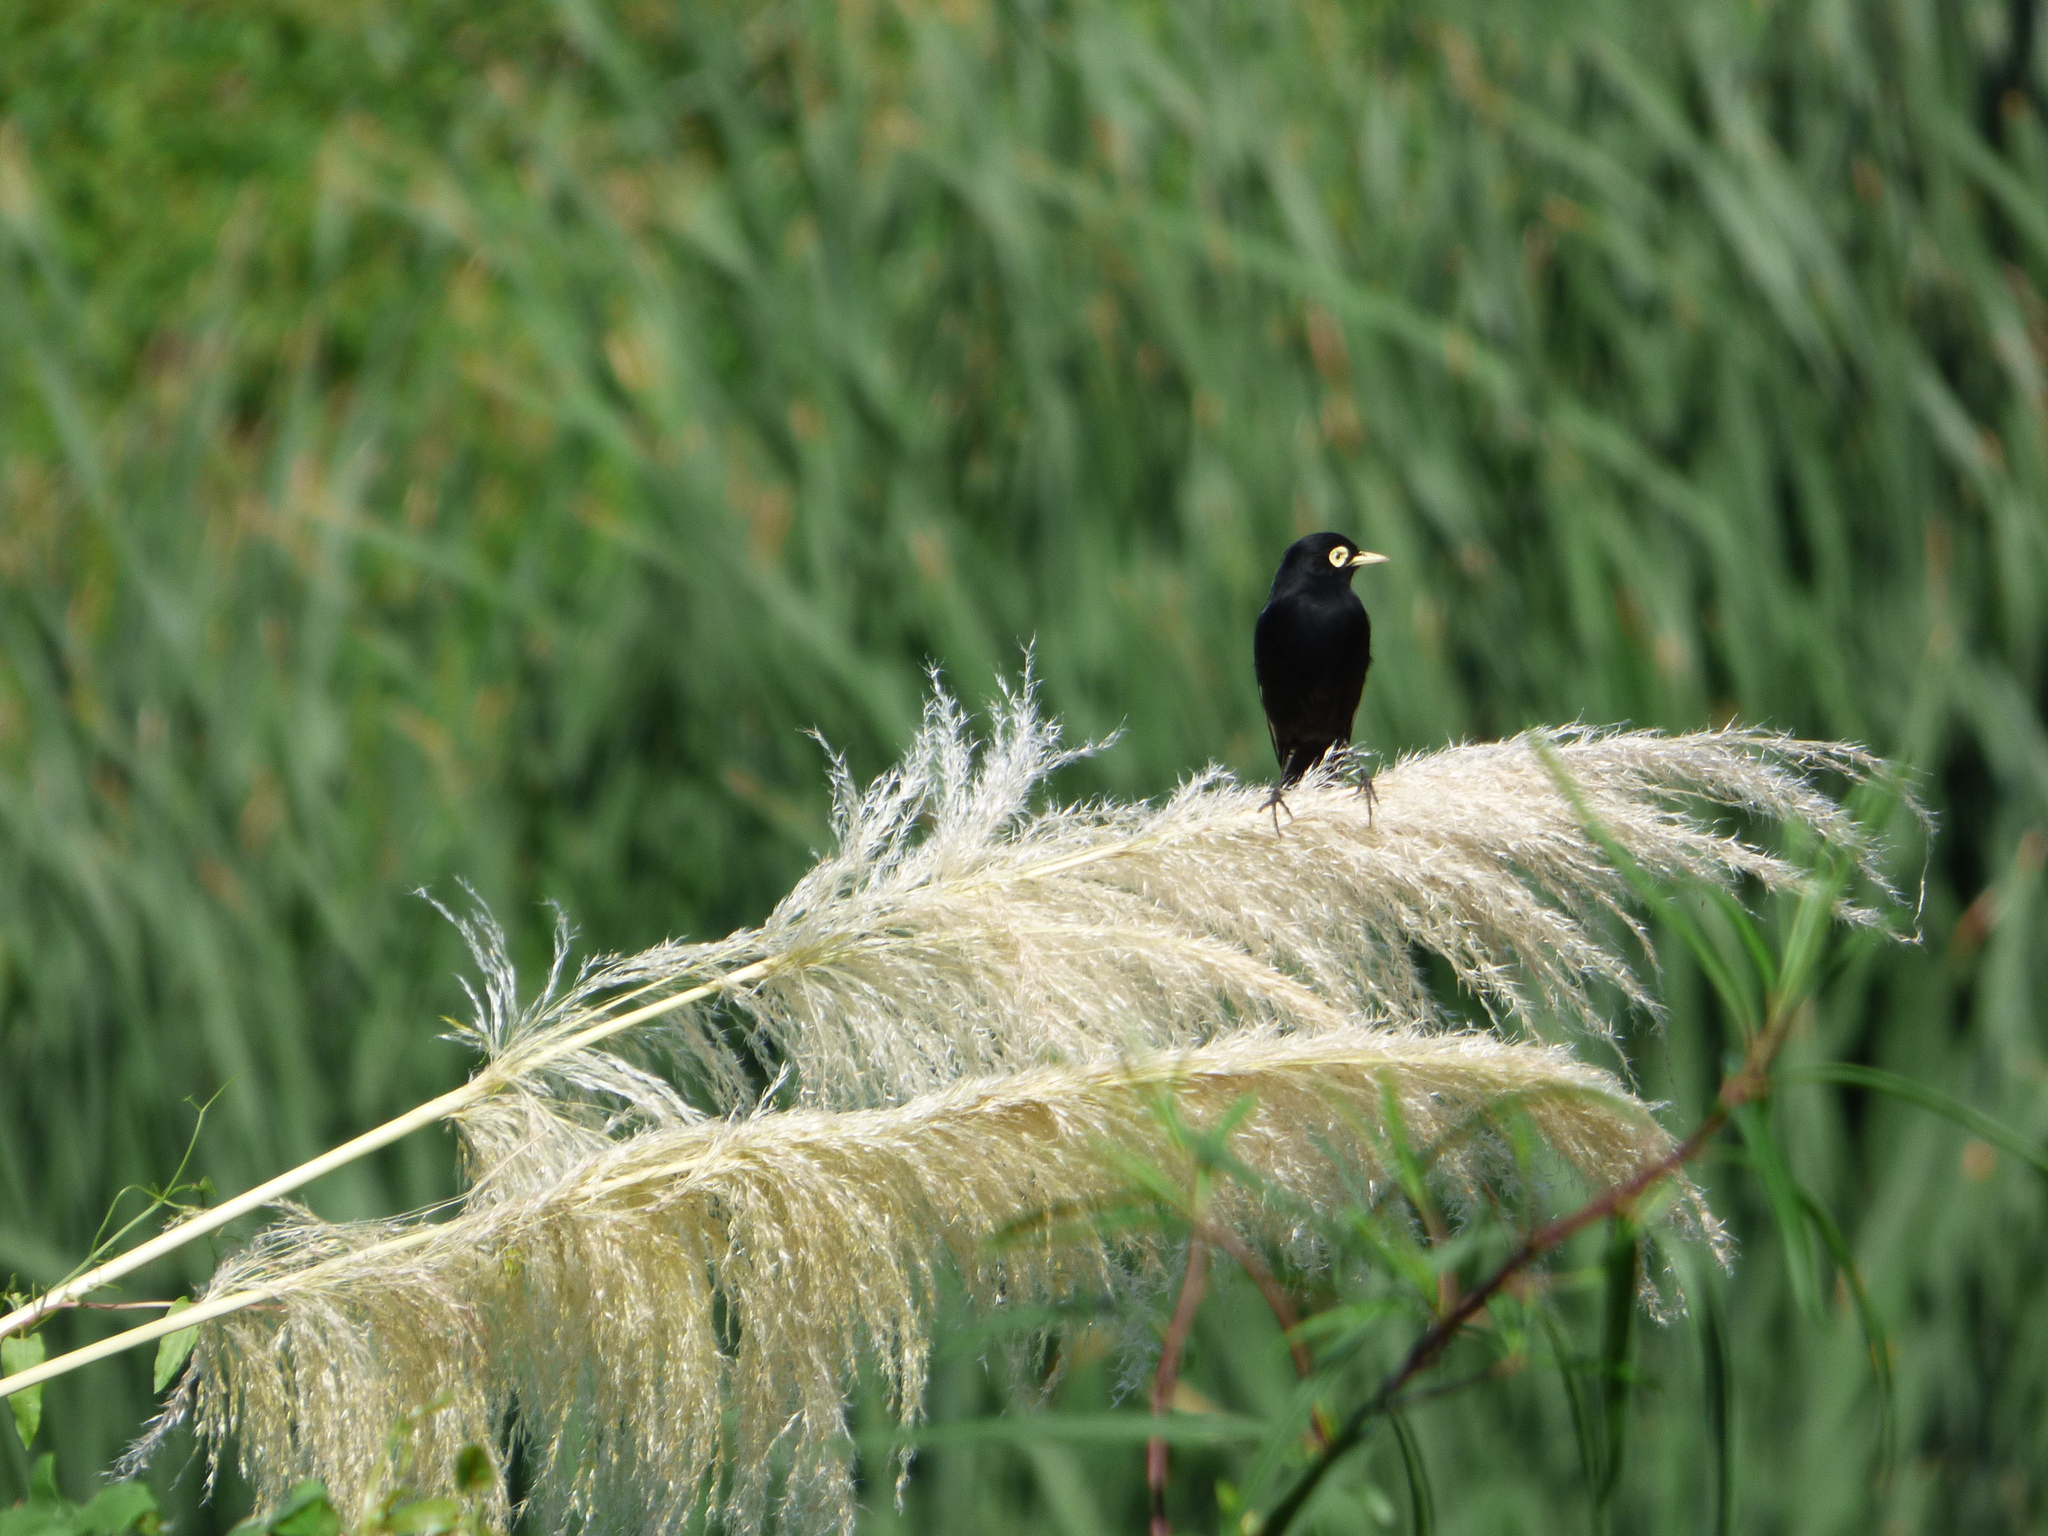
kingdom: Animalia
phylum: Chordata
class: Aves
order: Passeriformes
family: Tyrannidae
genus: Hymenops
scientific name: Hymenops perspicillatus
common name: Spectacled tyrant
